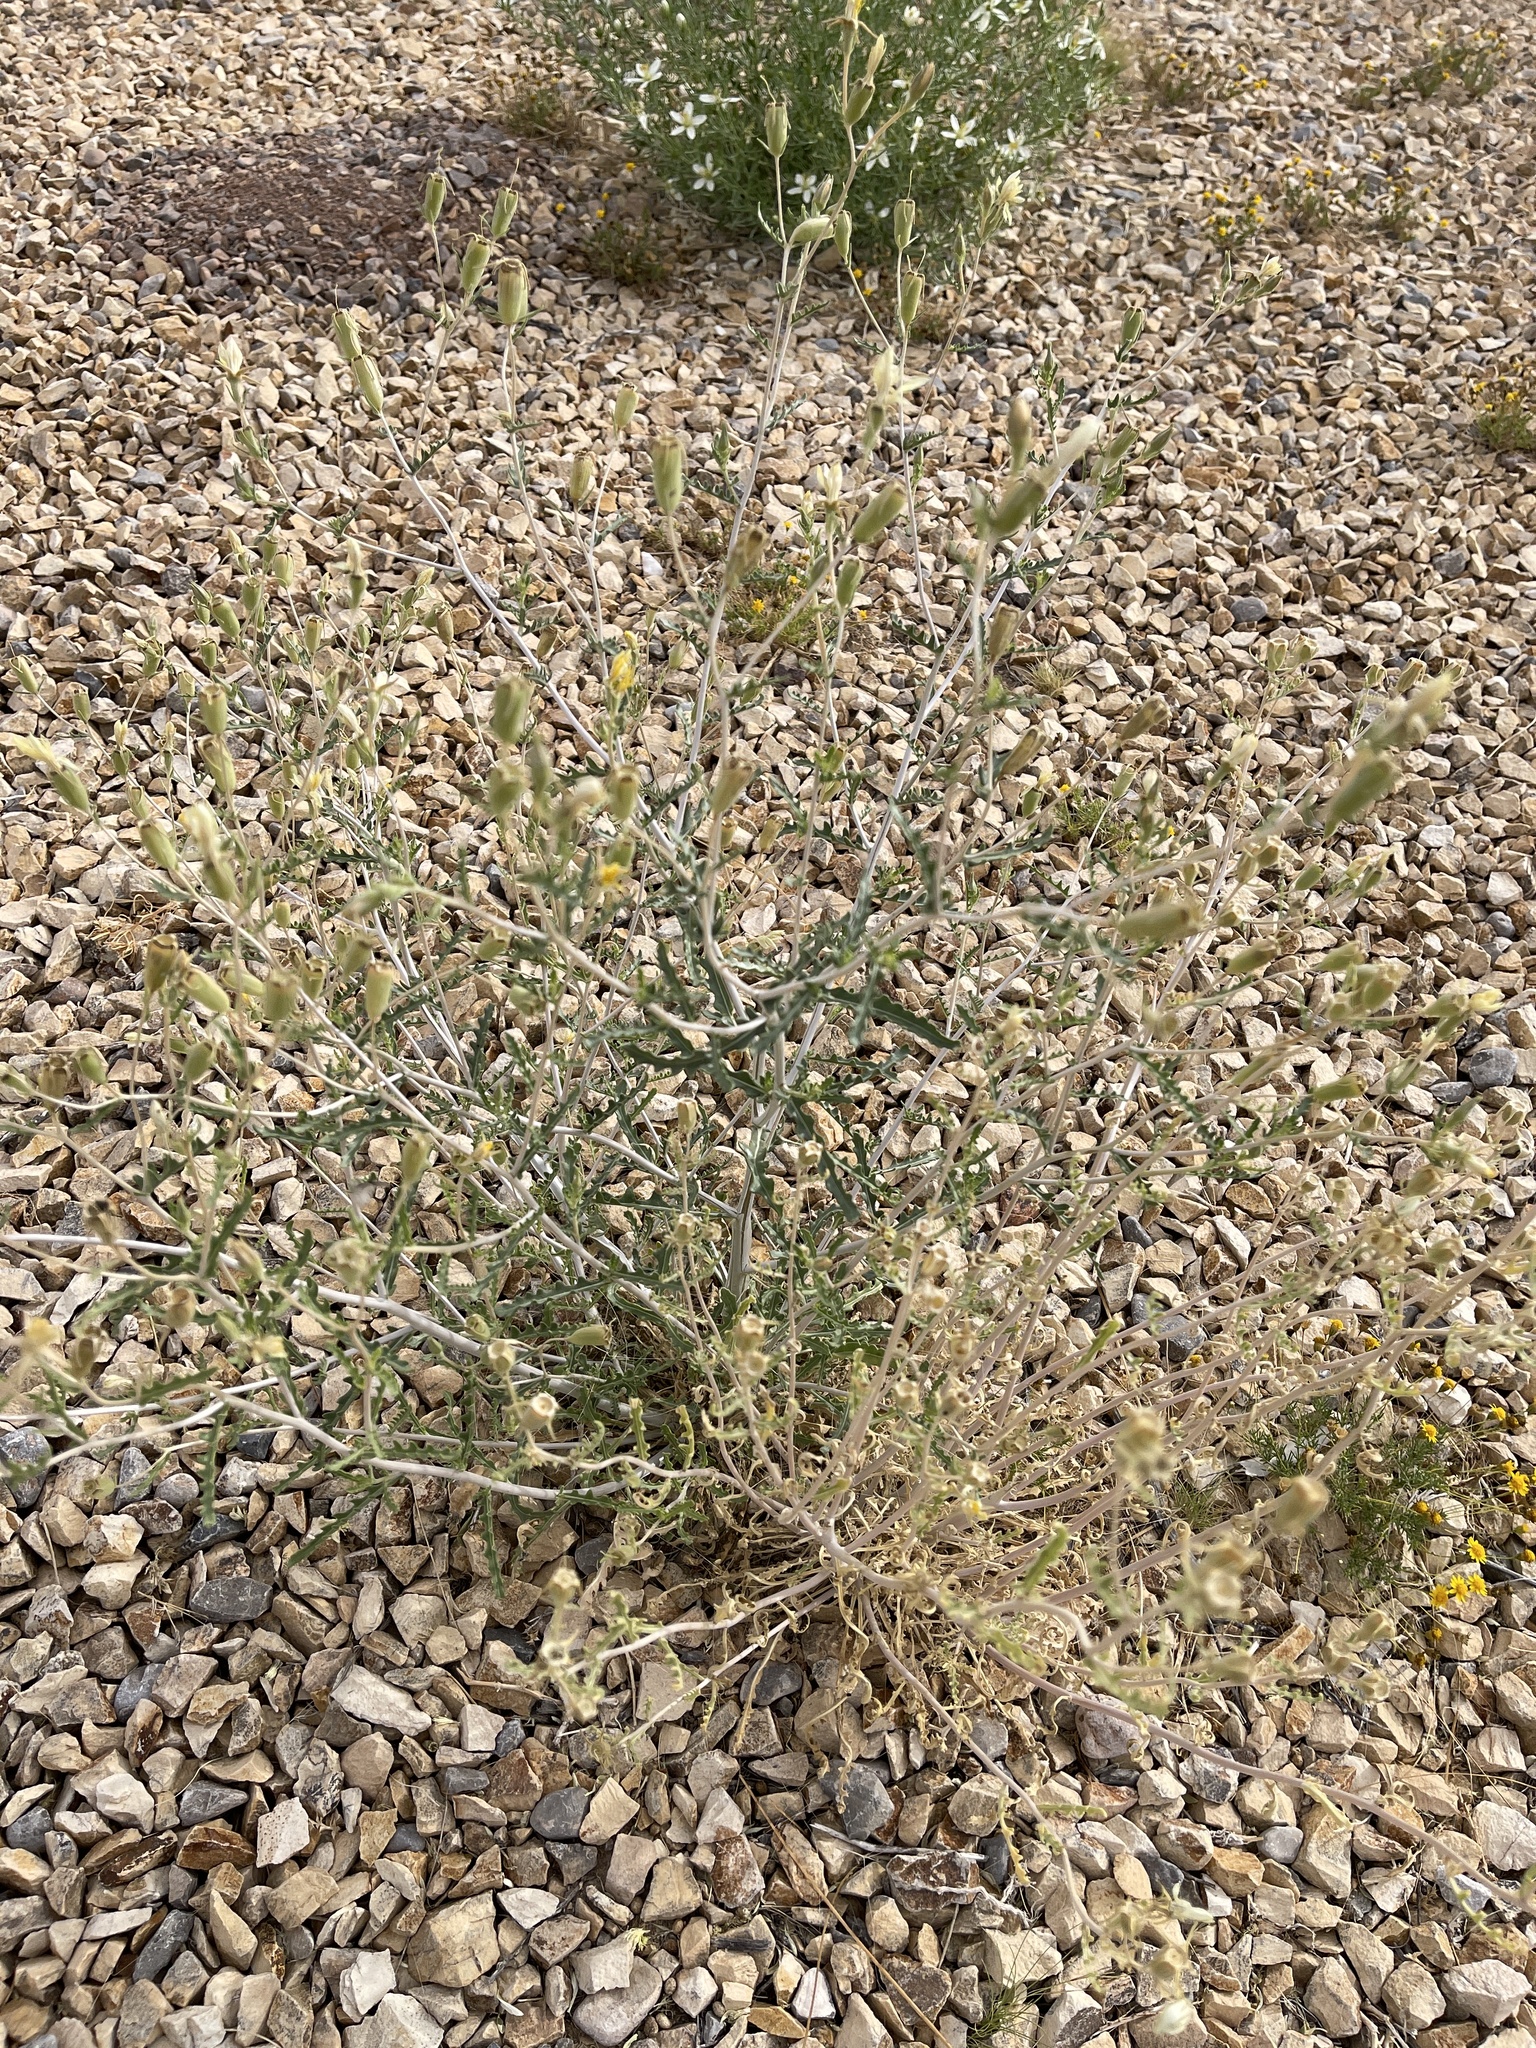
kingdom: Plantae
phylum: Tracheophyta
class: Magnoliopsida
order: Cornales
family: Loasaceae
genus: Mentzelia
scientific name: Mentzelia procera
